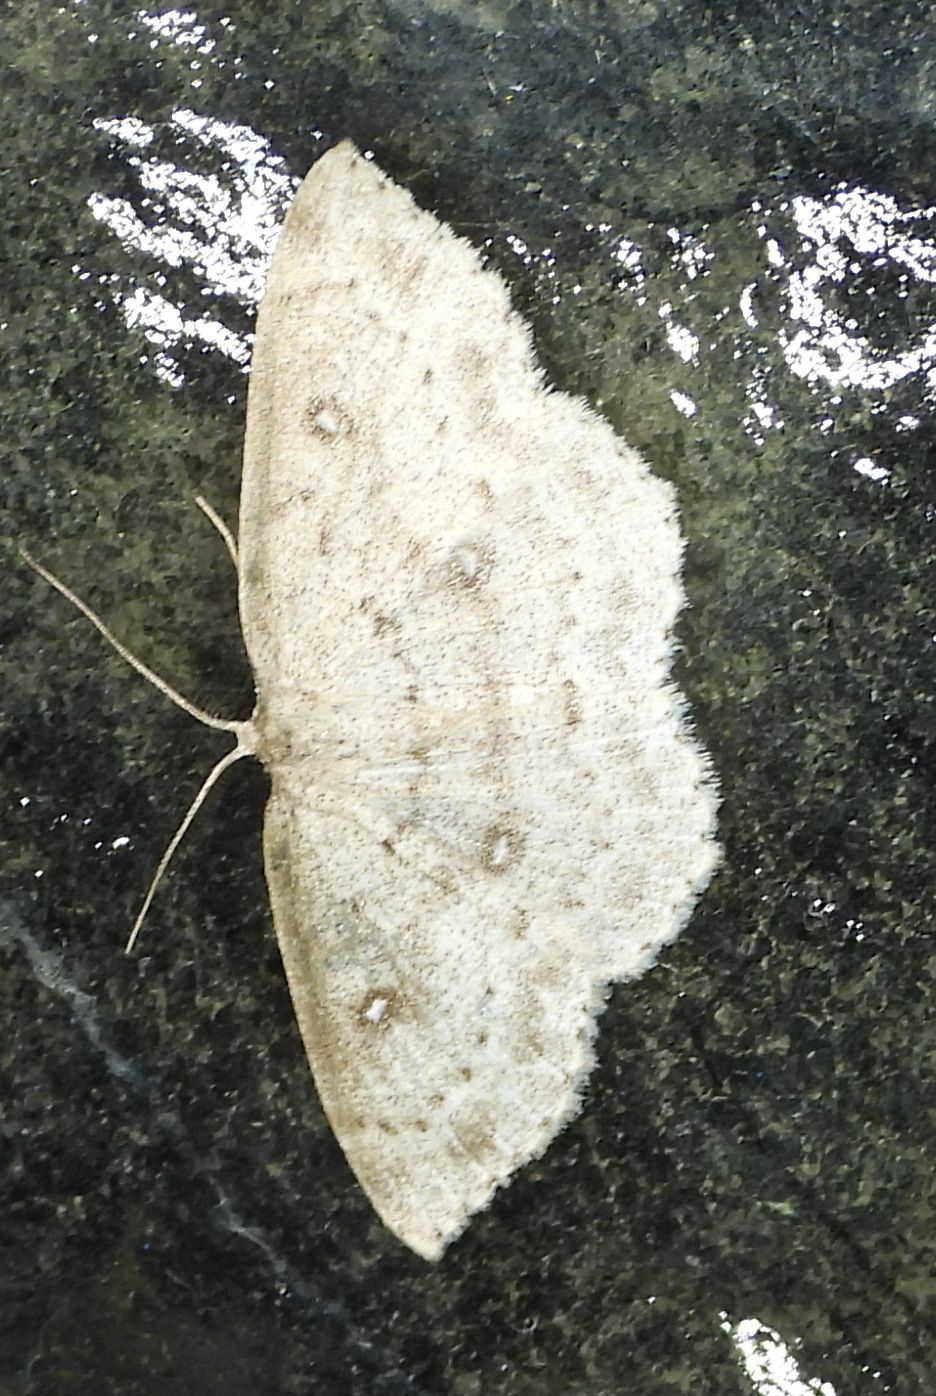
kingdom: Animalia
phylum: Arthropoda
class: Insecta
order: Lepidoptera
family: Geometridae
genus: Cyclophora
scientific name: Cyclophora pendulinaria
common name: Sweet fern geometer
